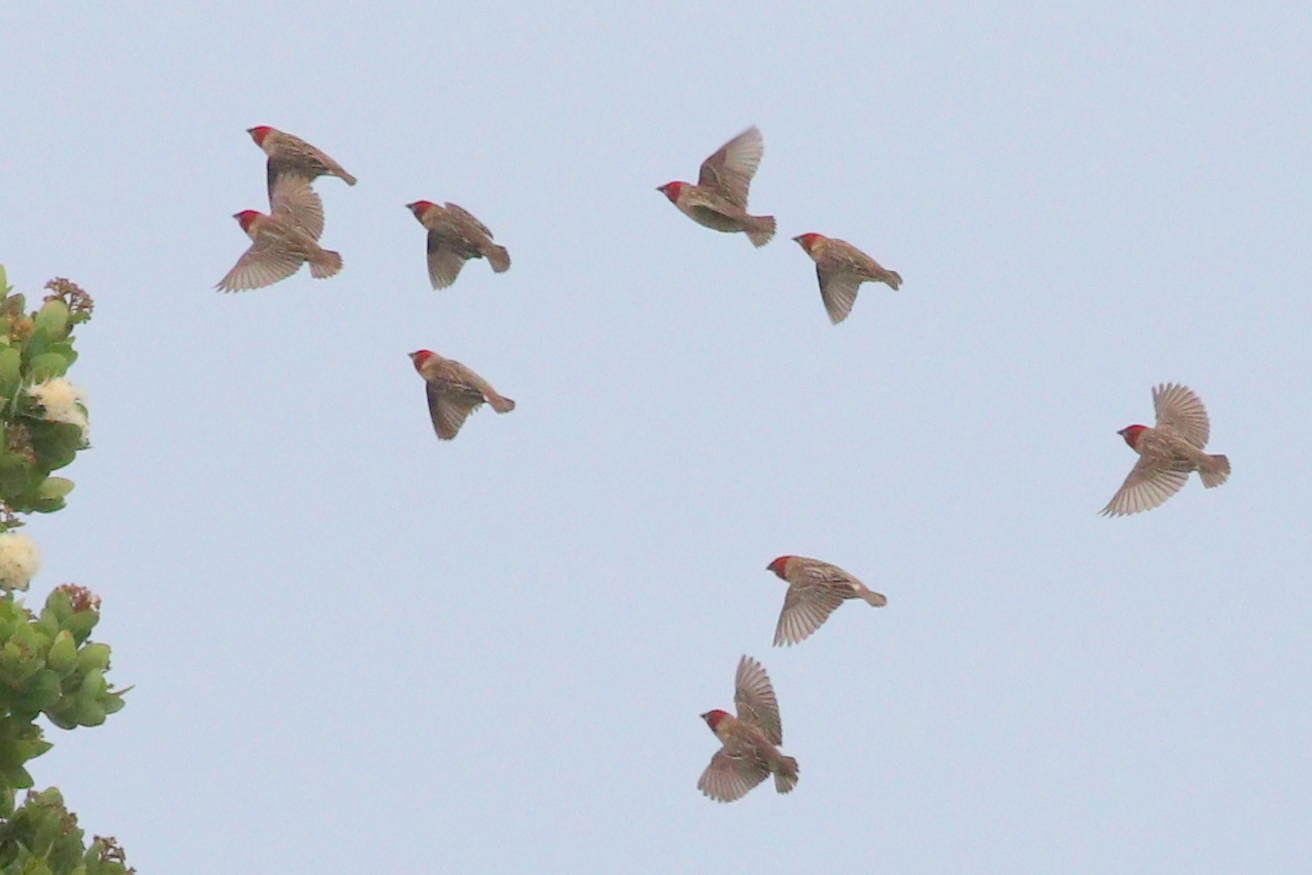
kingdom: Animalia
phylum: Chordata
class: Aves
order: Passeriformes
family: Ploceidae
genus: Quelea
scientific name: Quelea erythrops
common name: Red-headed quelea
